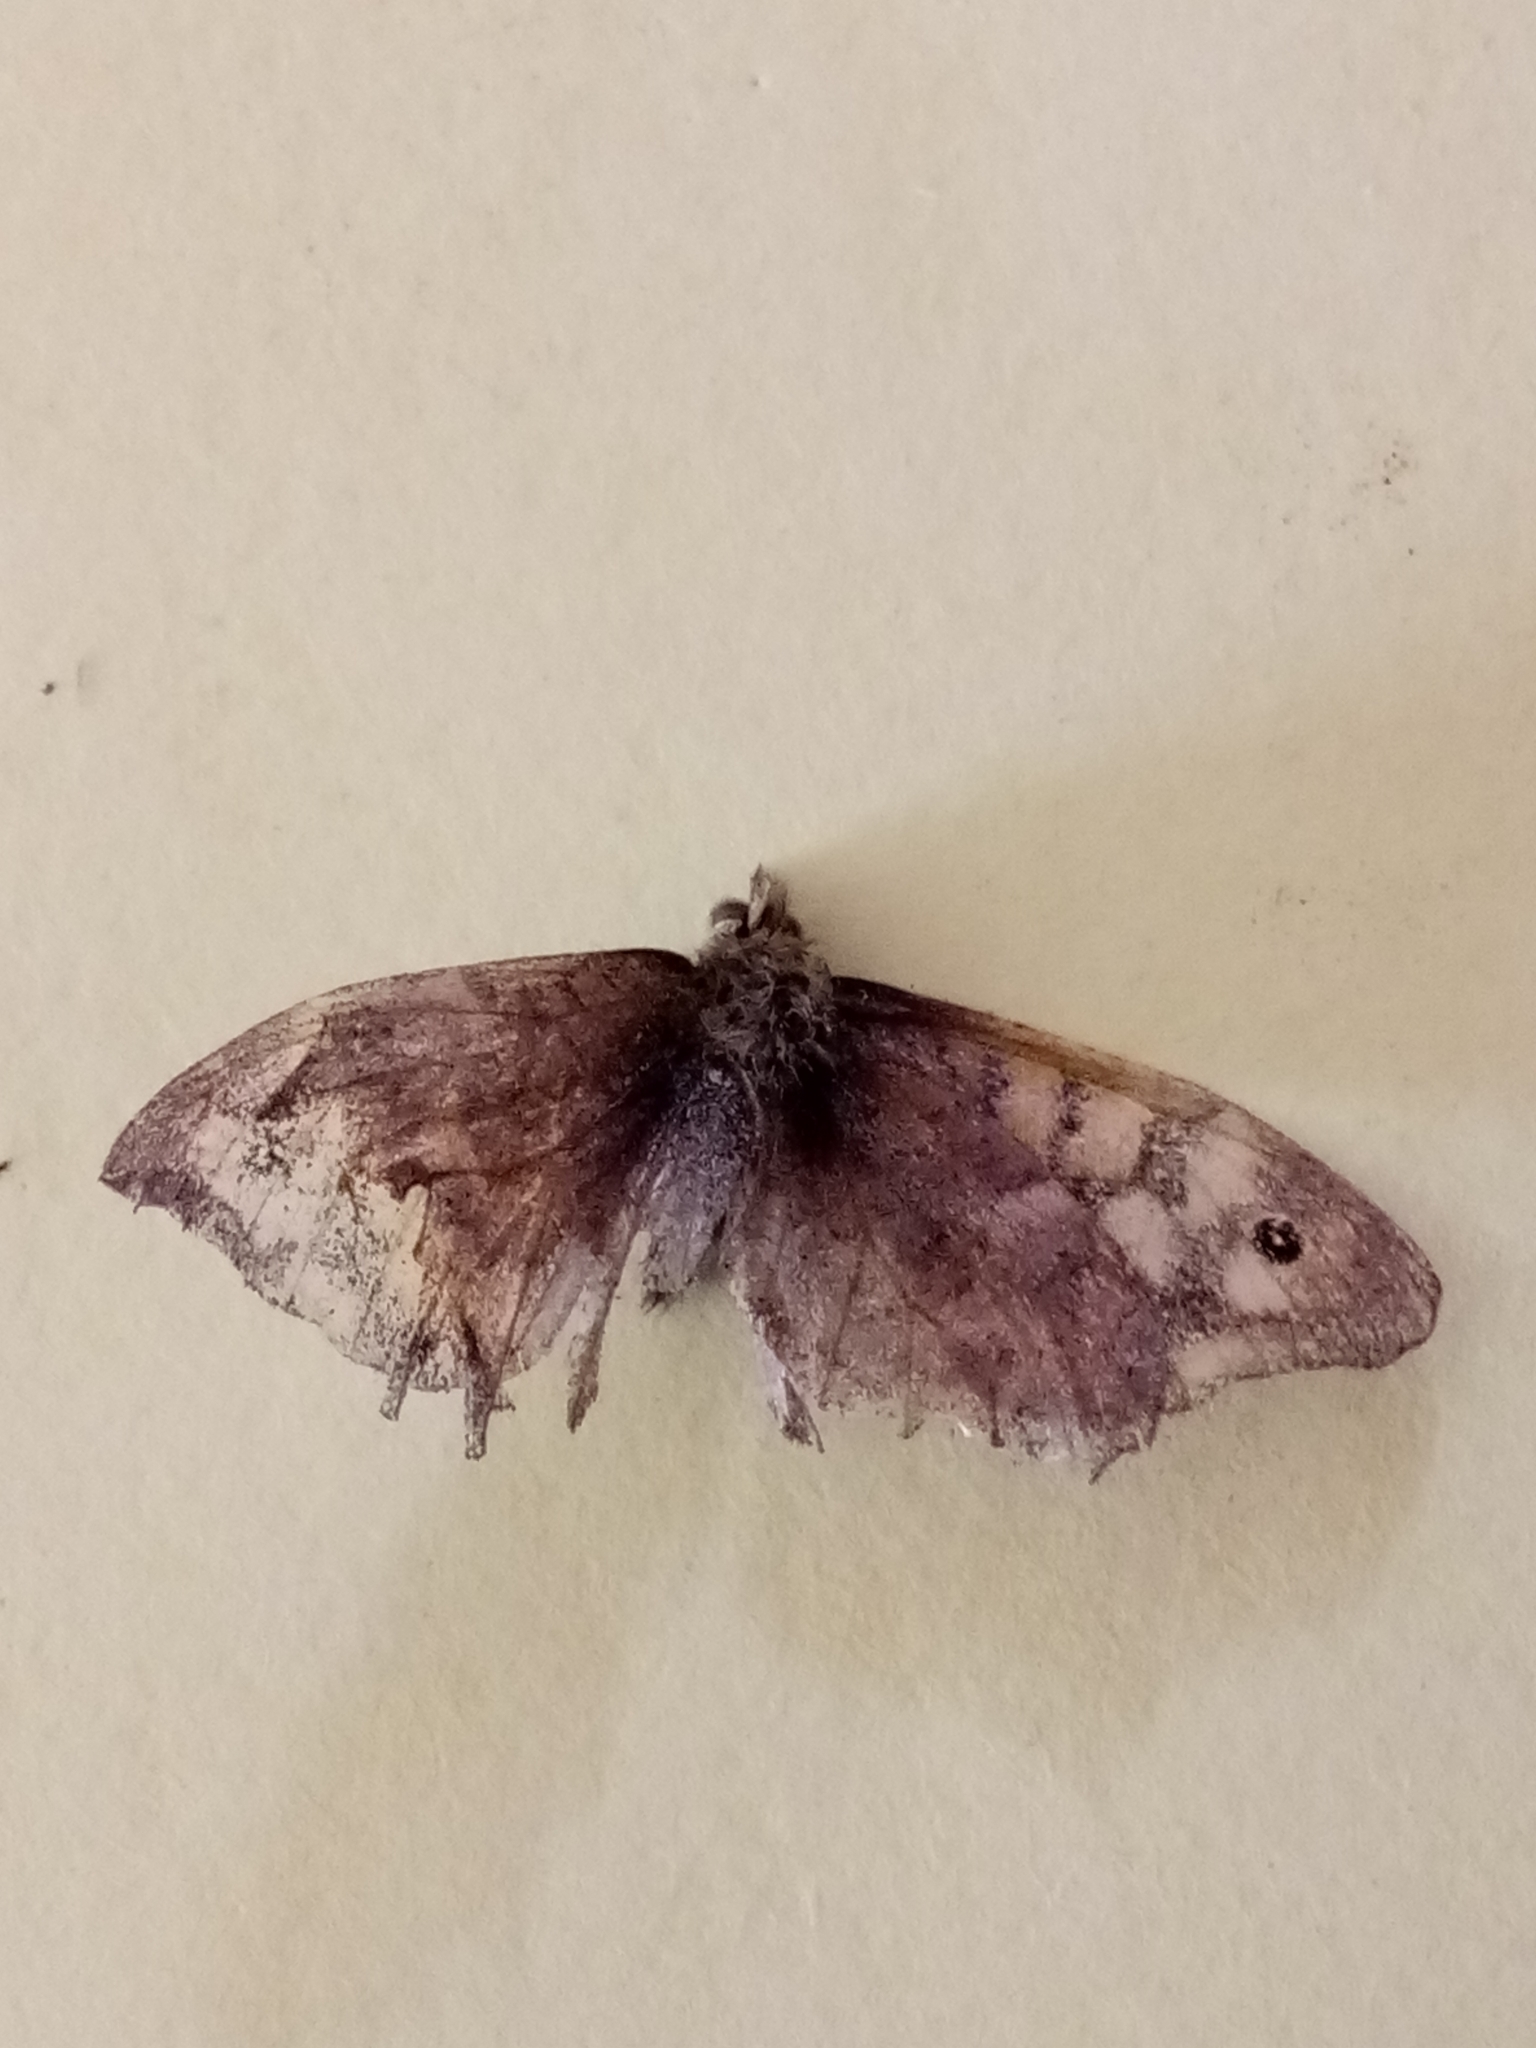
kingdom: Animalia
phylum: Arthropoda
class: Insecta
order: Lepidoptera
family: Nymphalidae
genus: Pararge
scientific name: Pararge aegeria
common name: Speckled wood
